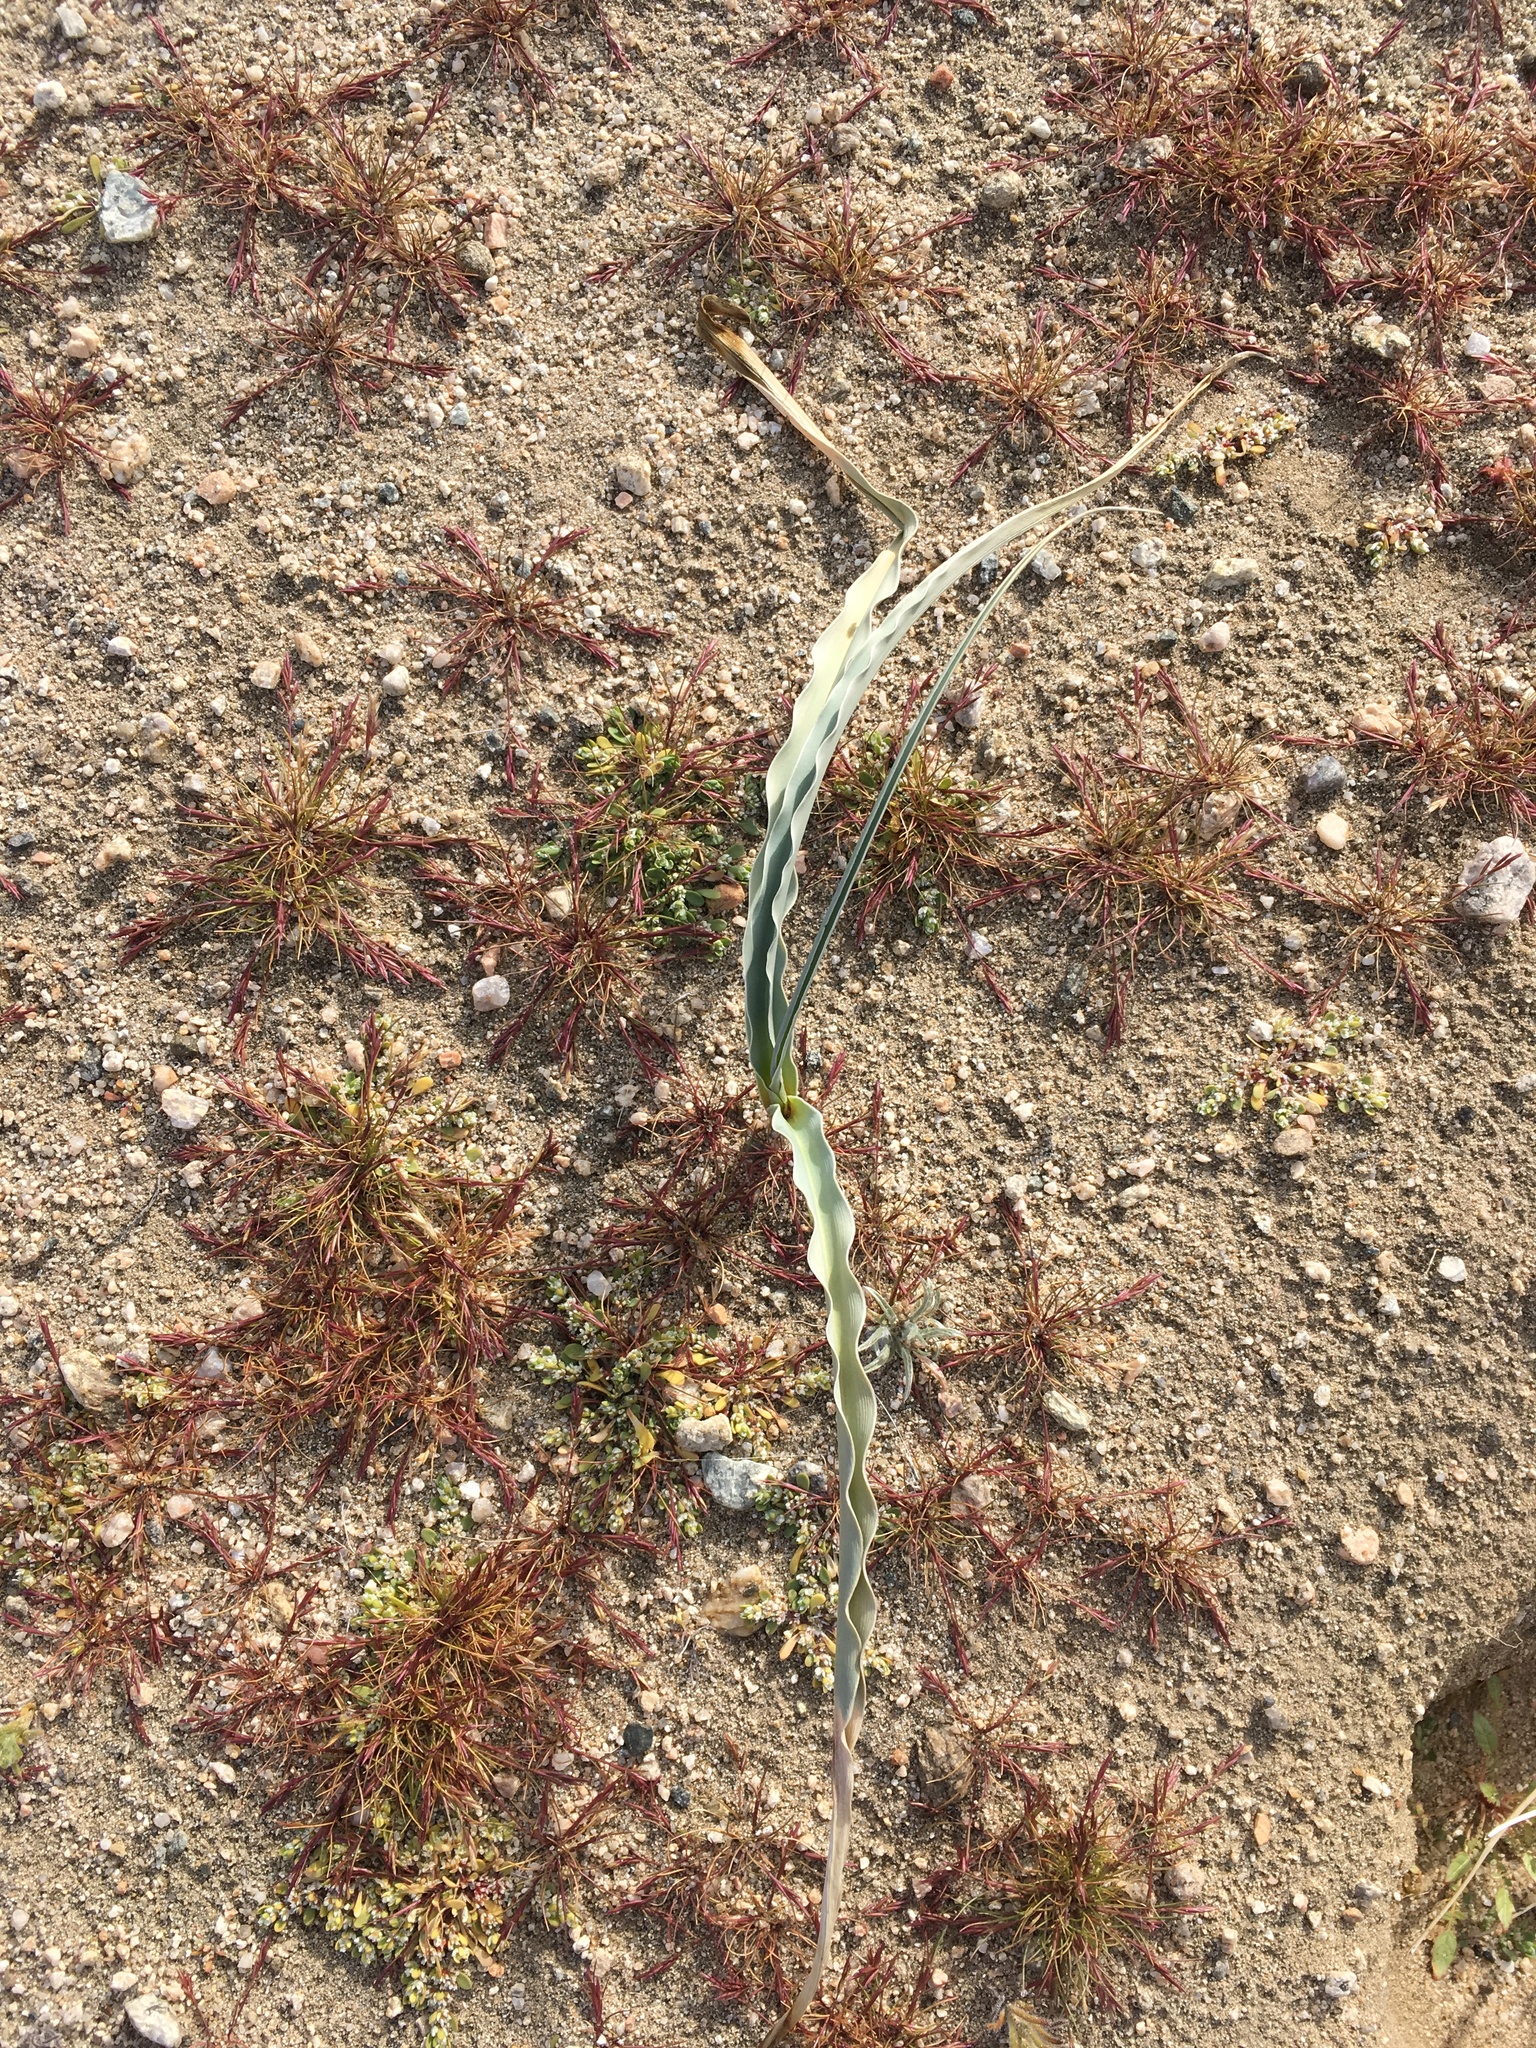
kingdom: Plantae
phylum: Tracheophyta
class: Liliopsida
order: Asparagales
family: Asparagaceae
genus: Hesperocallis
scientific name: Hesperocallis undulata
